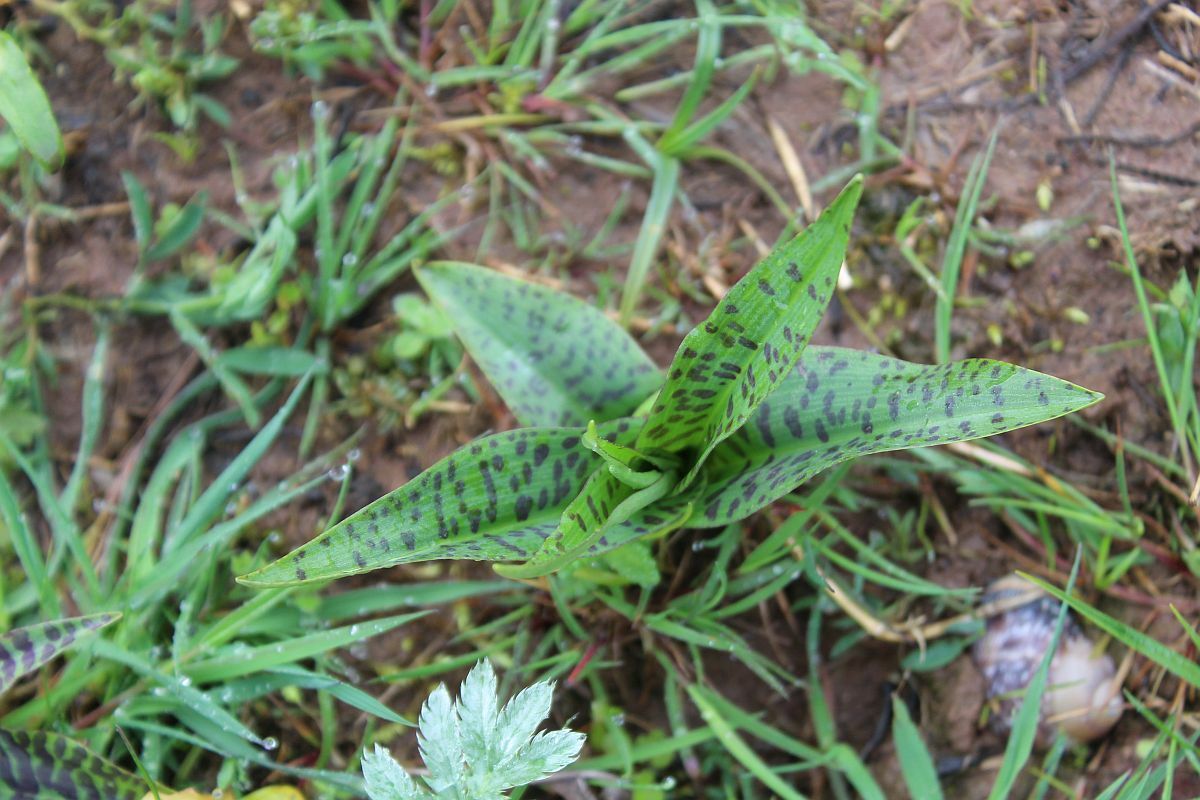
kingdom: Plantae
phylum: Tracheophyta
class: Liliopsida
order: Asparagales
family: Orchidaceae
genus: Dactylorhiza
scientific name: Dactylorhiza maculata
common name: Heath spotted-orchid
